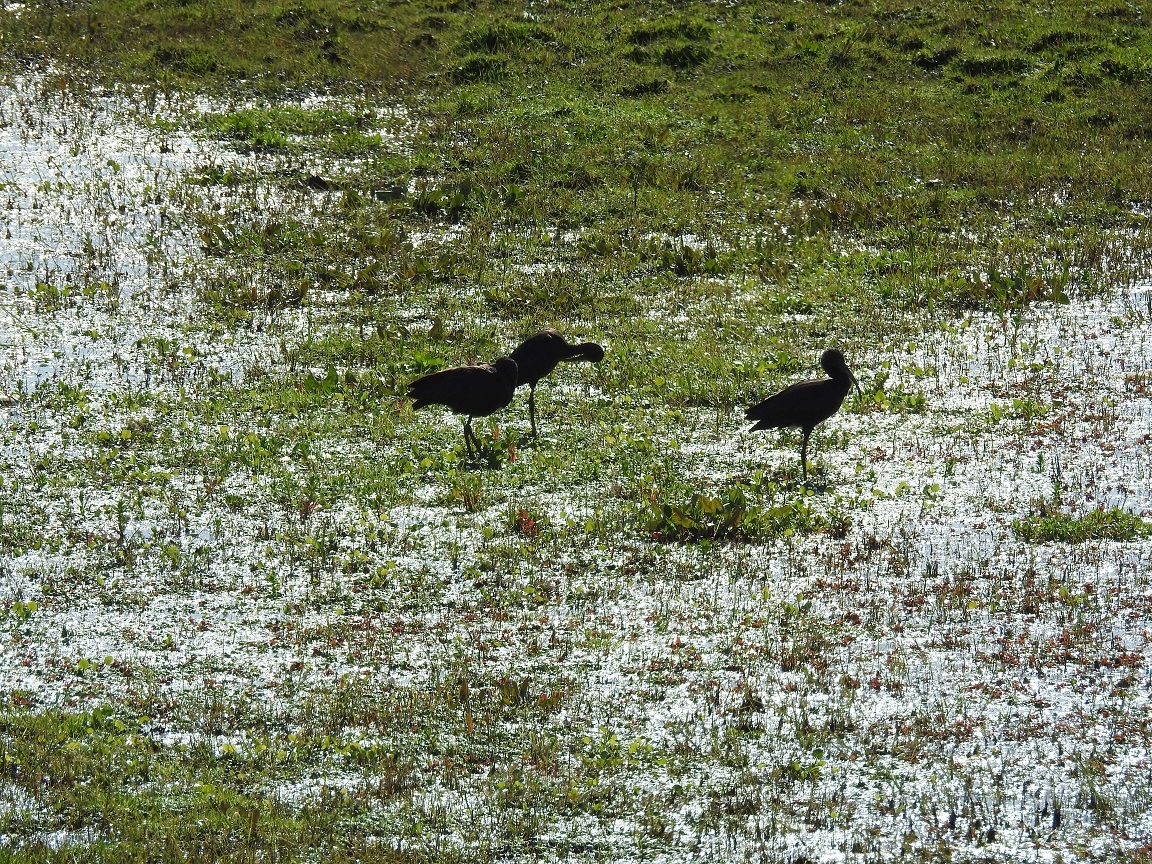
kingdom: Animalia
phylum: Chordata
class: Aves
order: Pelecaniformes
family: Threskiornithidae
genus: Plegadis
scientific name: Plegadis falcinellus
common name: Glossy ibis
